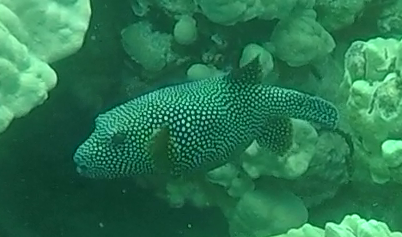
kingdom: Animalia
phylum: Chordata
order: Tetraodontiformes
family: Tetraodontidae
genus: Arothron
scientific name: Arothron meleagris
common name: Guinea-fowl pufferfish
